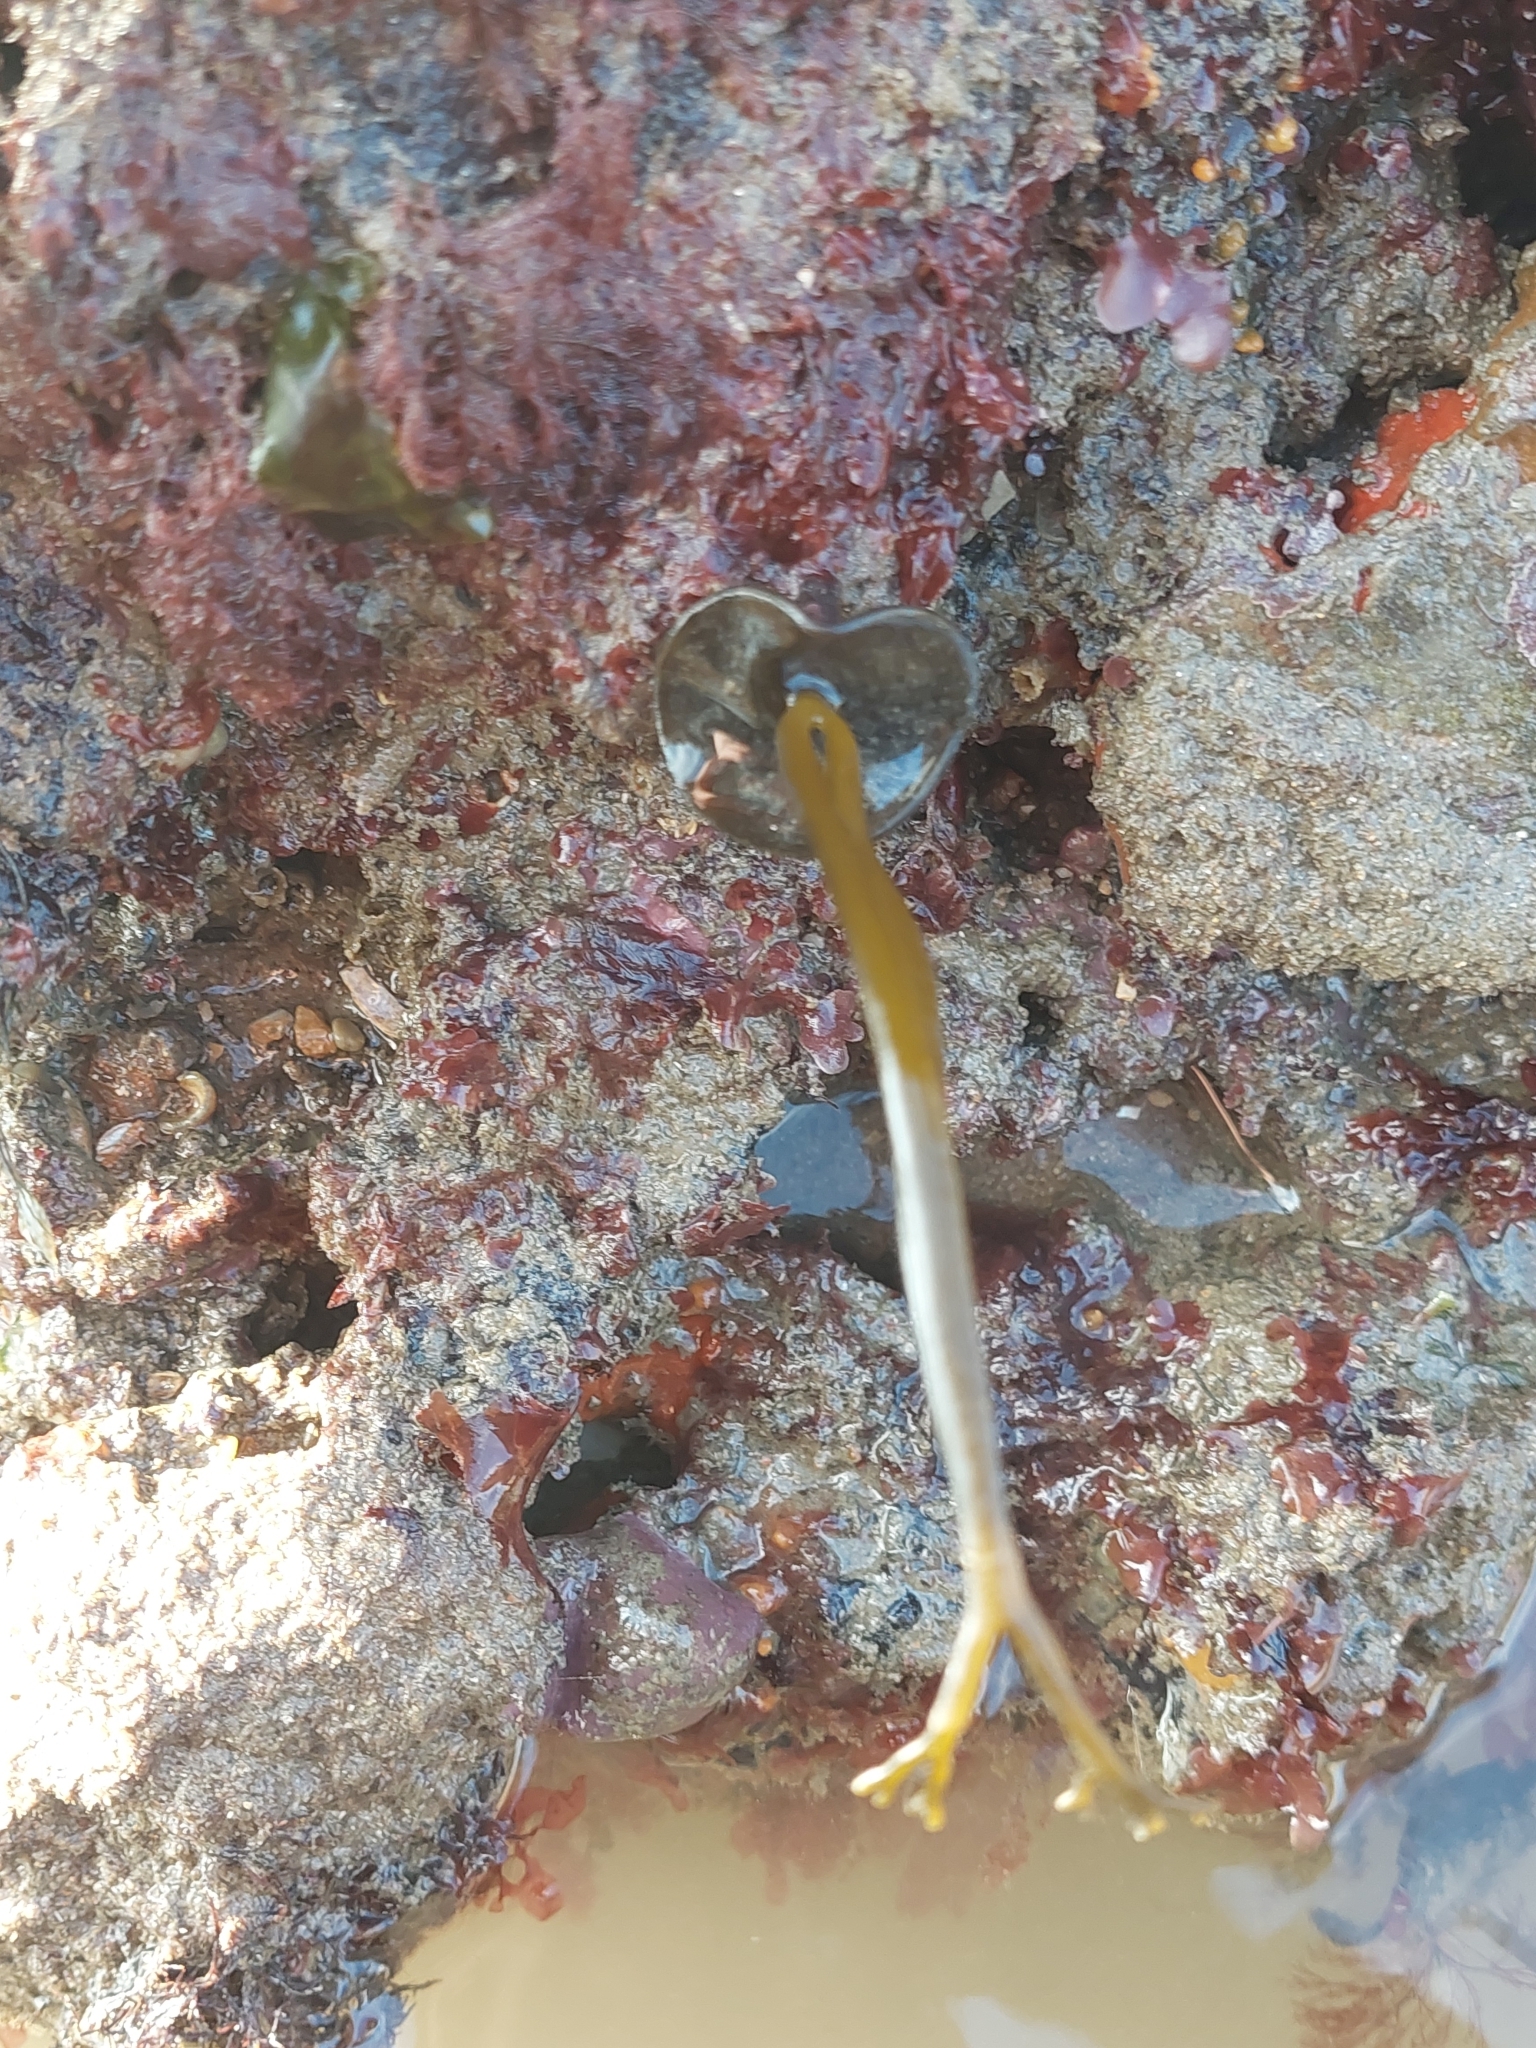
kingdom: Chromista
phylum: Ochrophyta
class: Phaeophyceae
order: Fucales
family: Himanthaliaceae
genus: Himanthalia
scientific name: Himanthalia elongata
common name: Sea-thong
